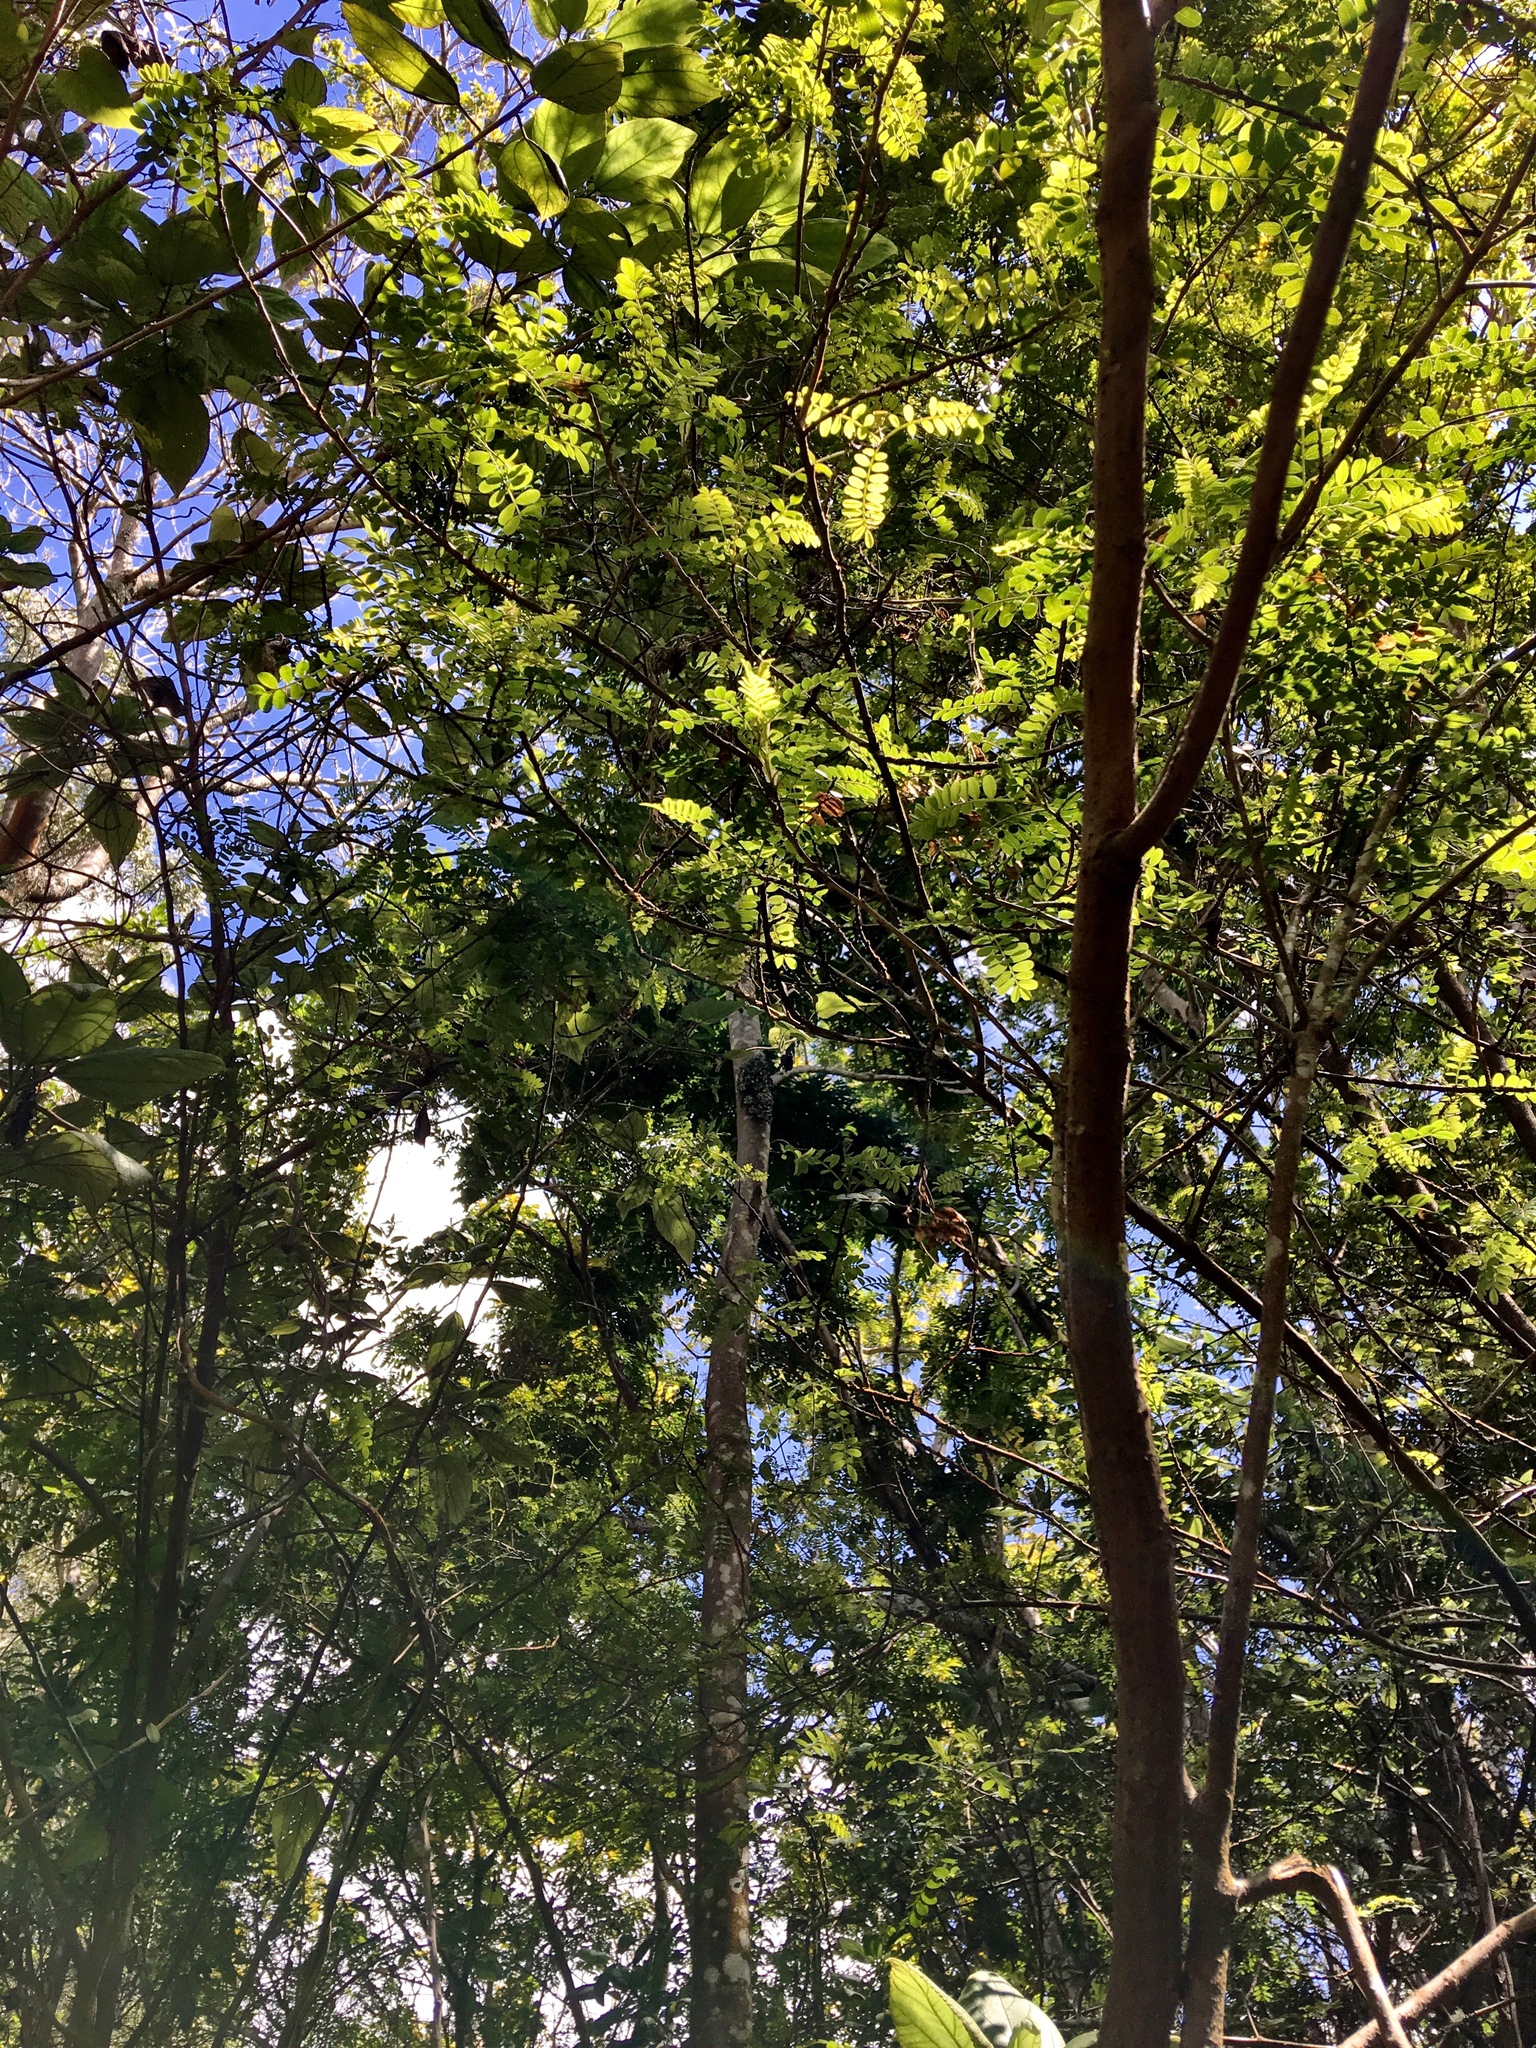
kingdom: Plantae
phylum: Tracheophyta
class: Magnoliopsida
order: Fabales
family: Fabaceae
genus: Sophora
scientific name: Sophora chrysophylla
